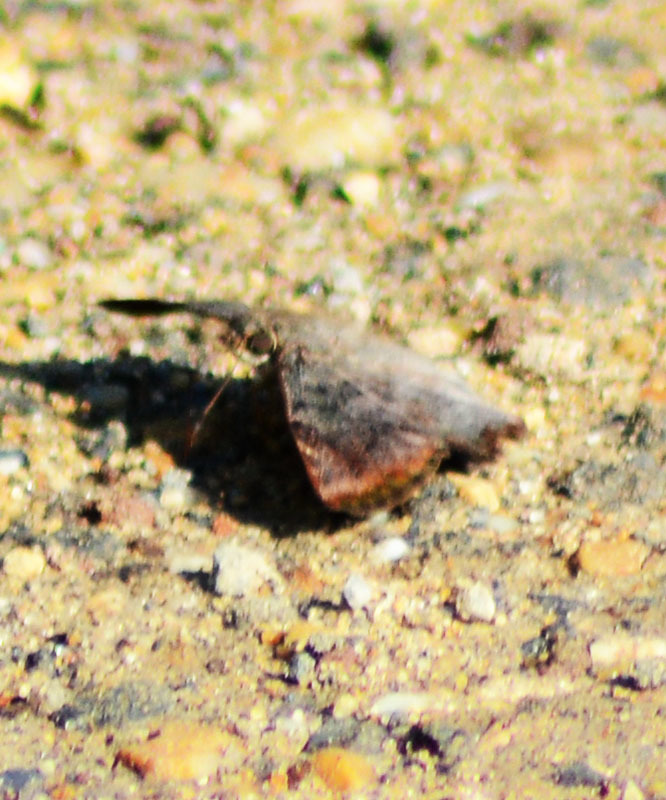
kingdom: Animalia
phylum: Arthropoda
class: Insecta
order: Lepidoptera
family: Hesperiidae
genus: Antigonus
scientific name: Antigonus erosus
